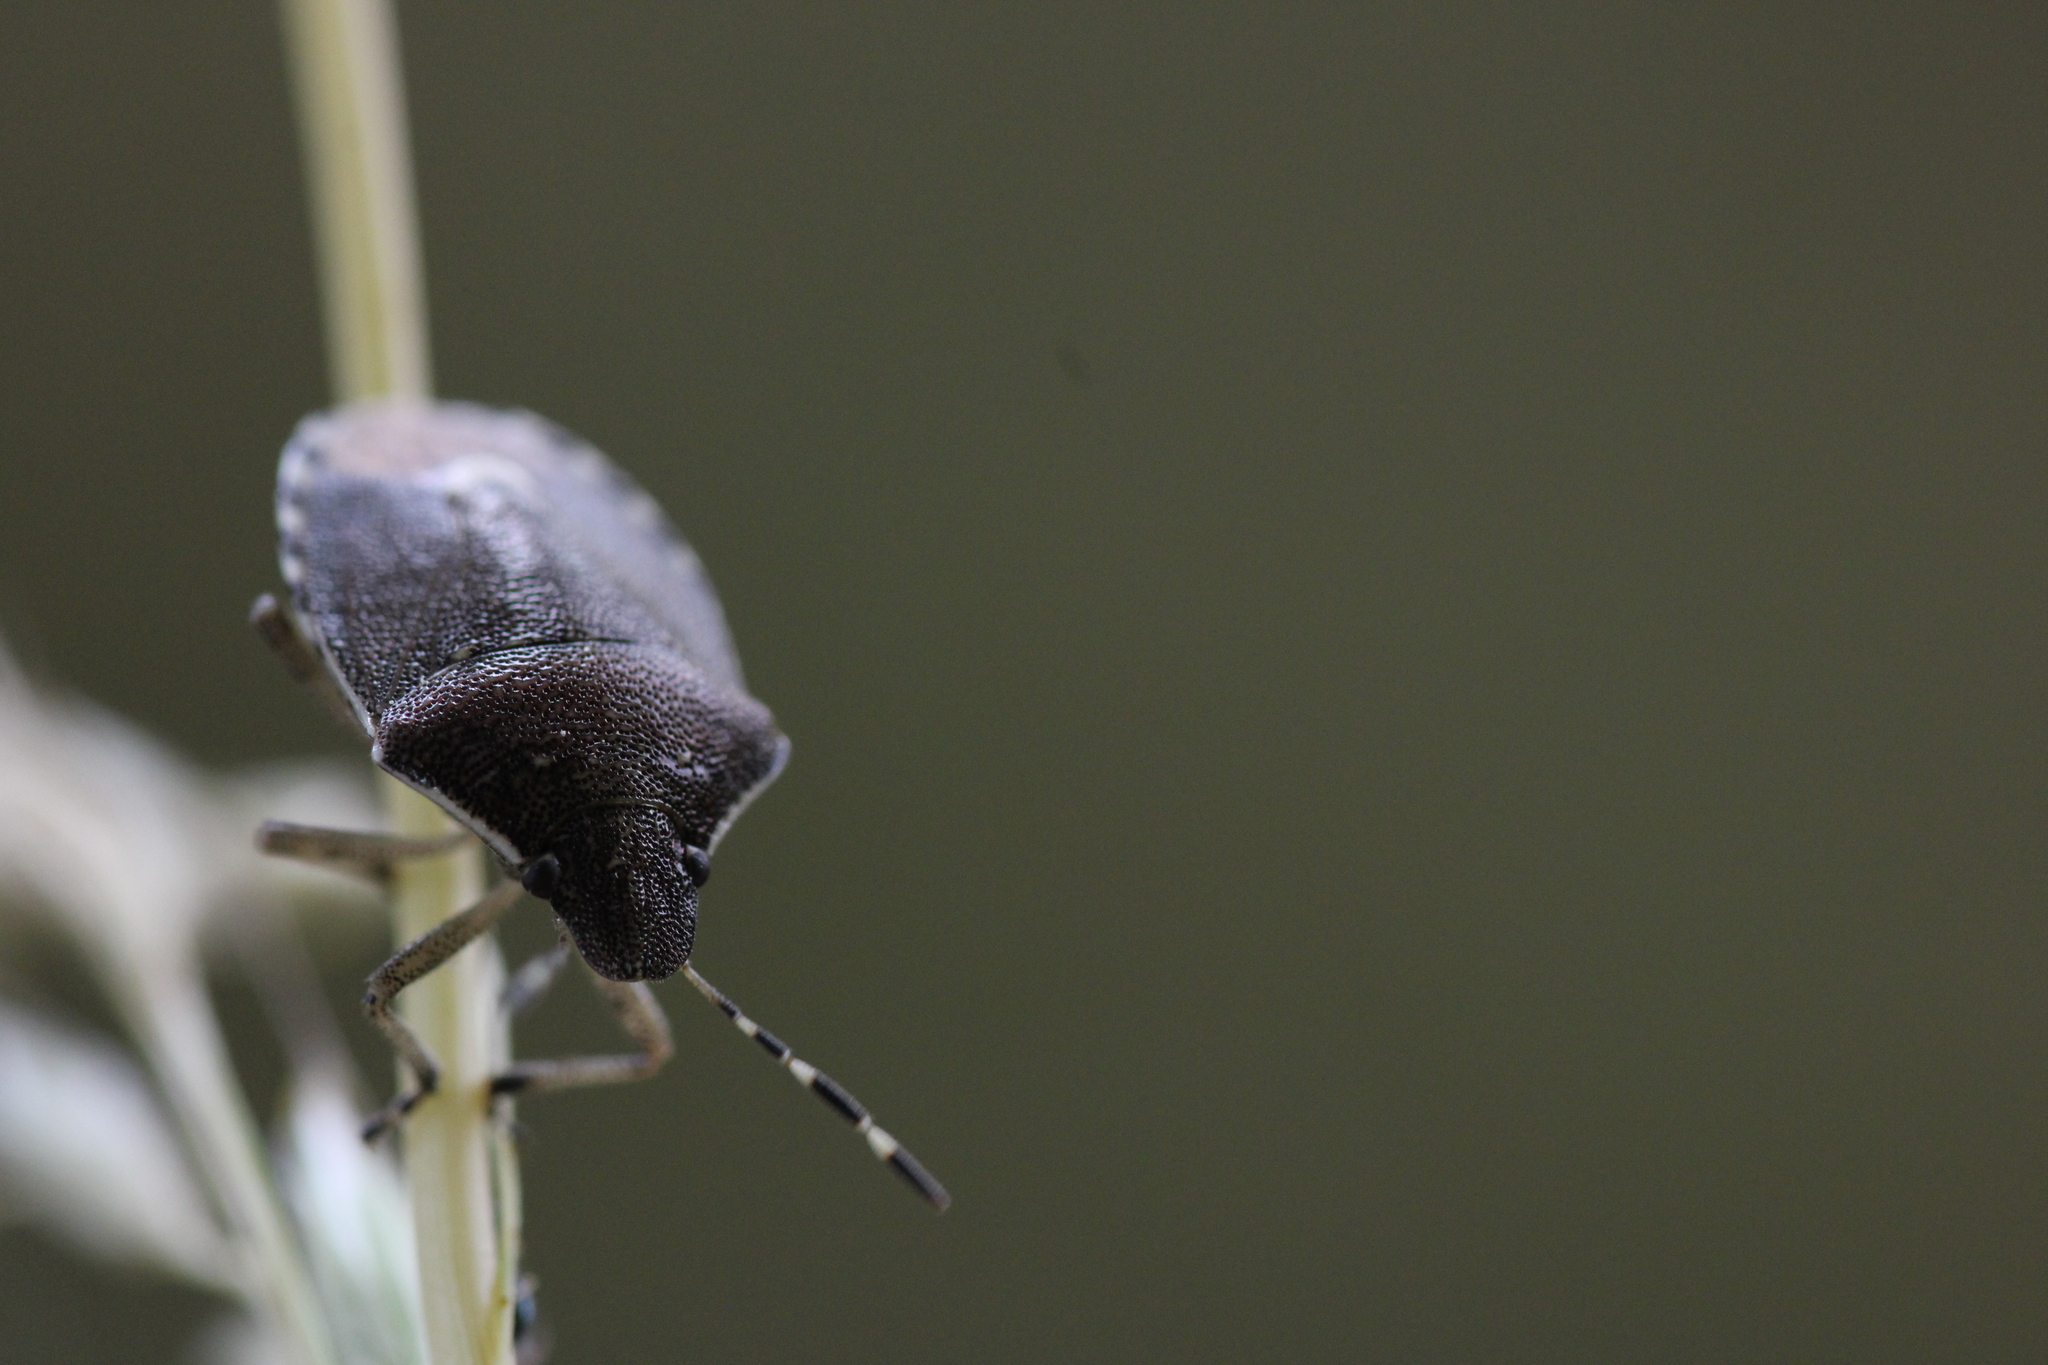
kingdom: Animalia
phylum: Arthropoda
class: Insecta
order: Hemiptera
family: Pentatomidae
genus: Holcostethus
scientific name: Holcostethus sphacelatus
